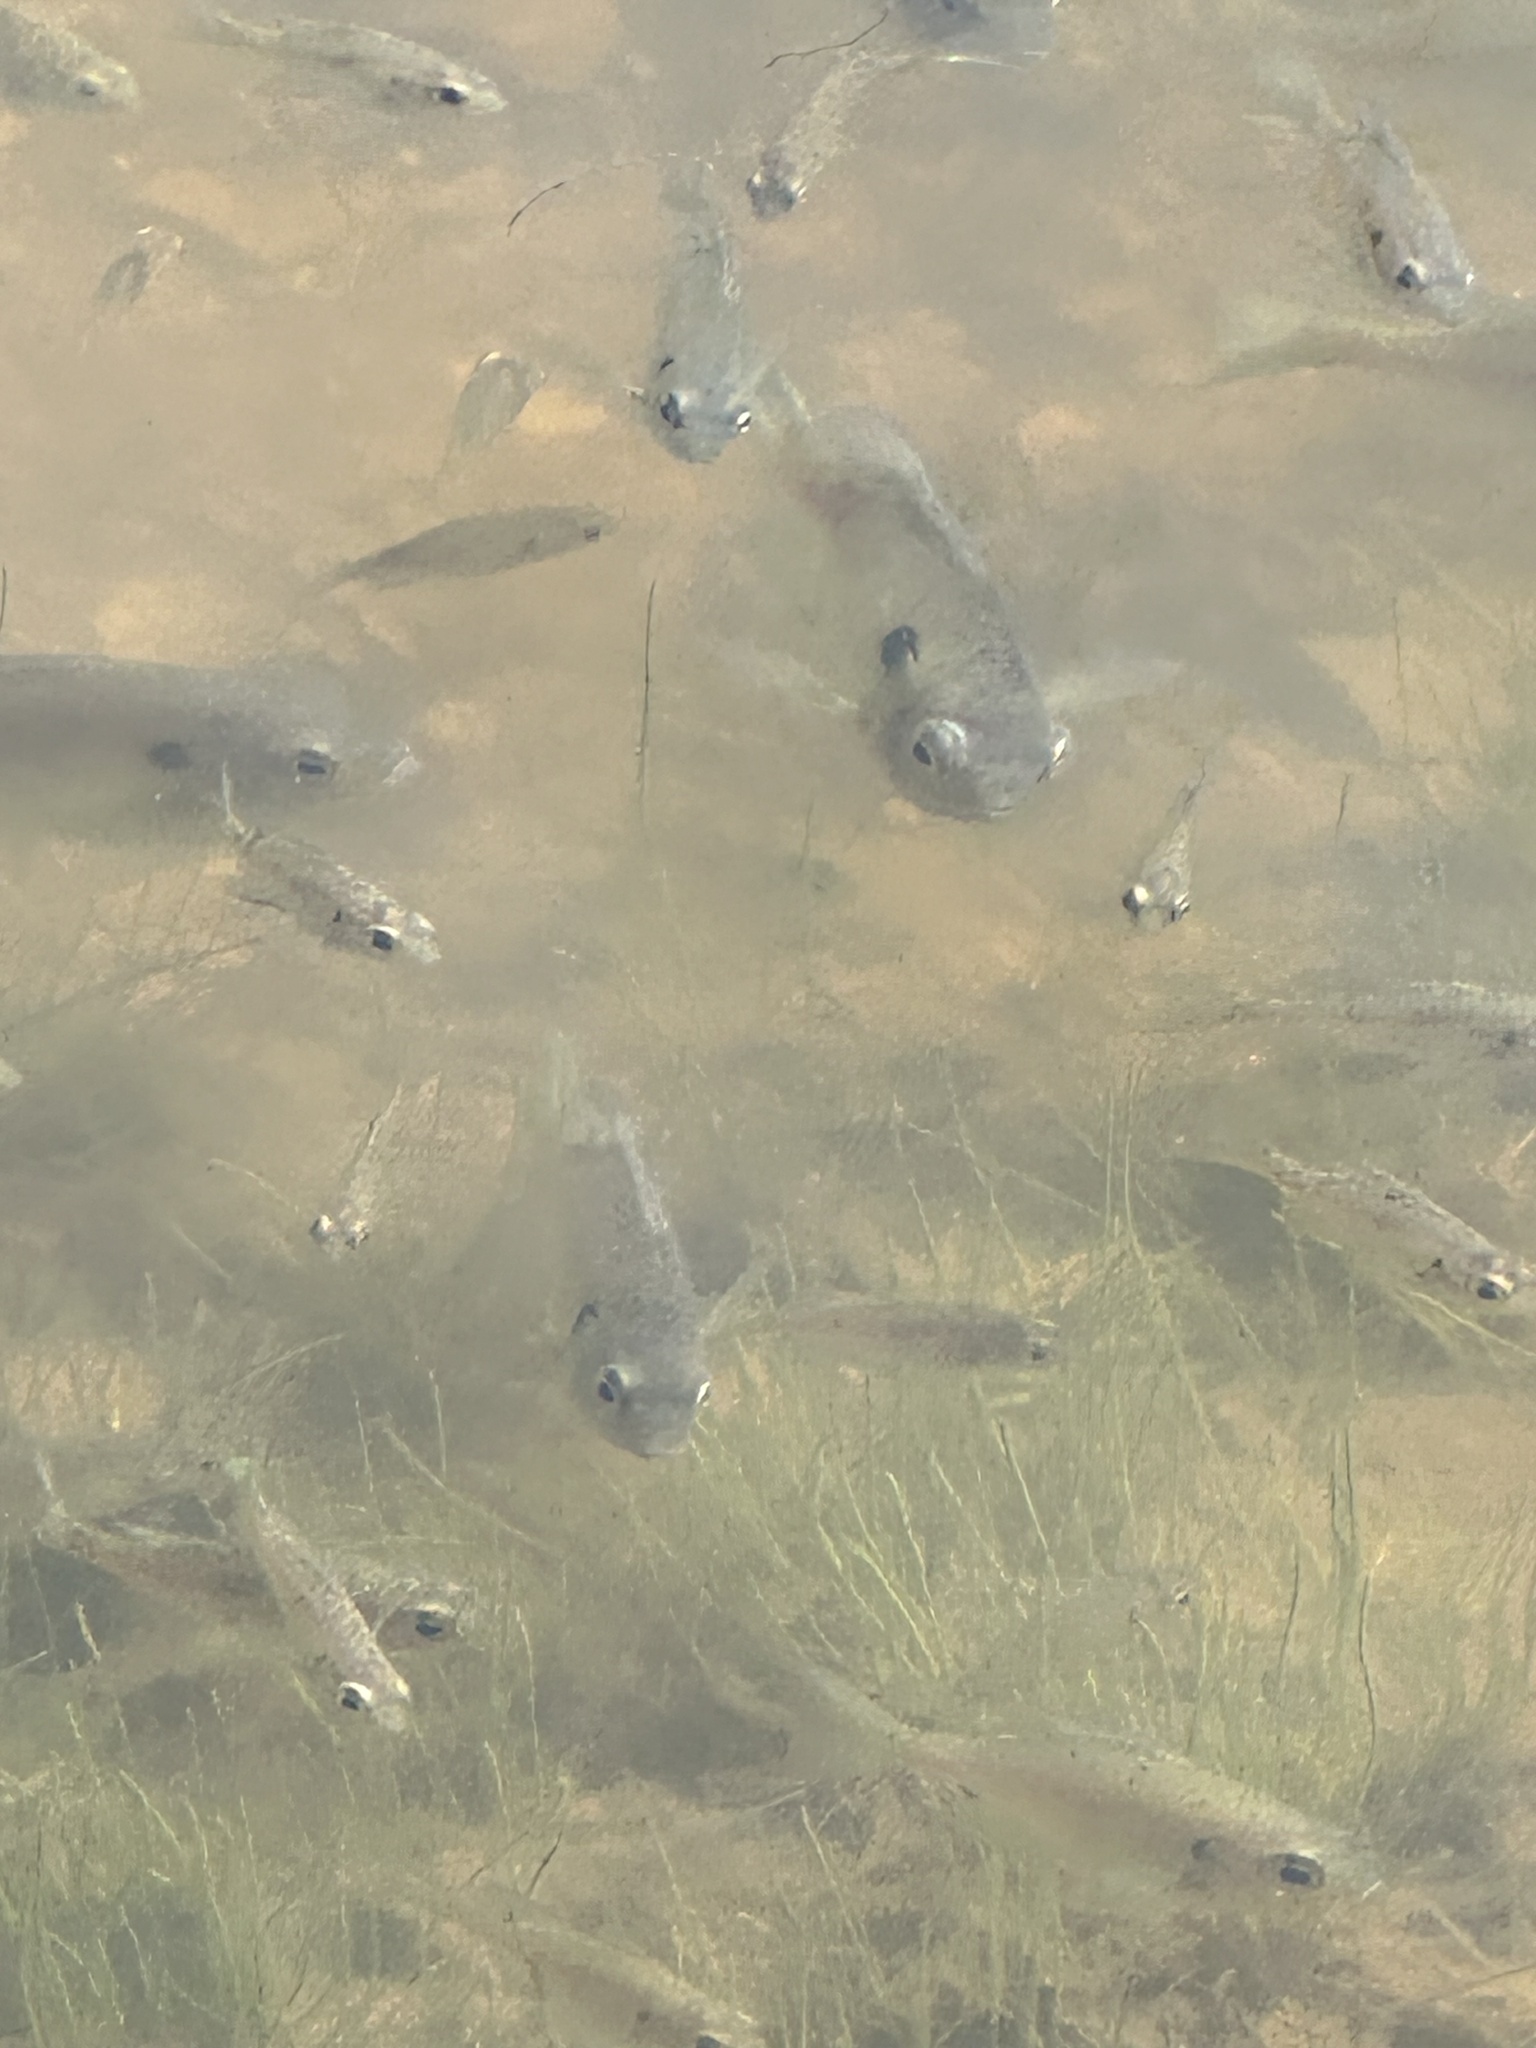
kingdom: Animalia
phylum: Chordata
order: Perciformes
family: Centrarchidae
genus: Lepomis
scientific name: Lepomis macrochirus
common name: Bluegill
